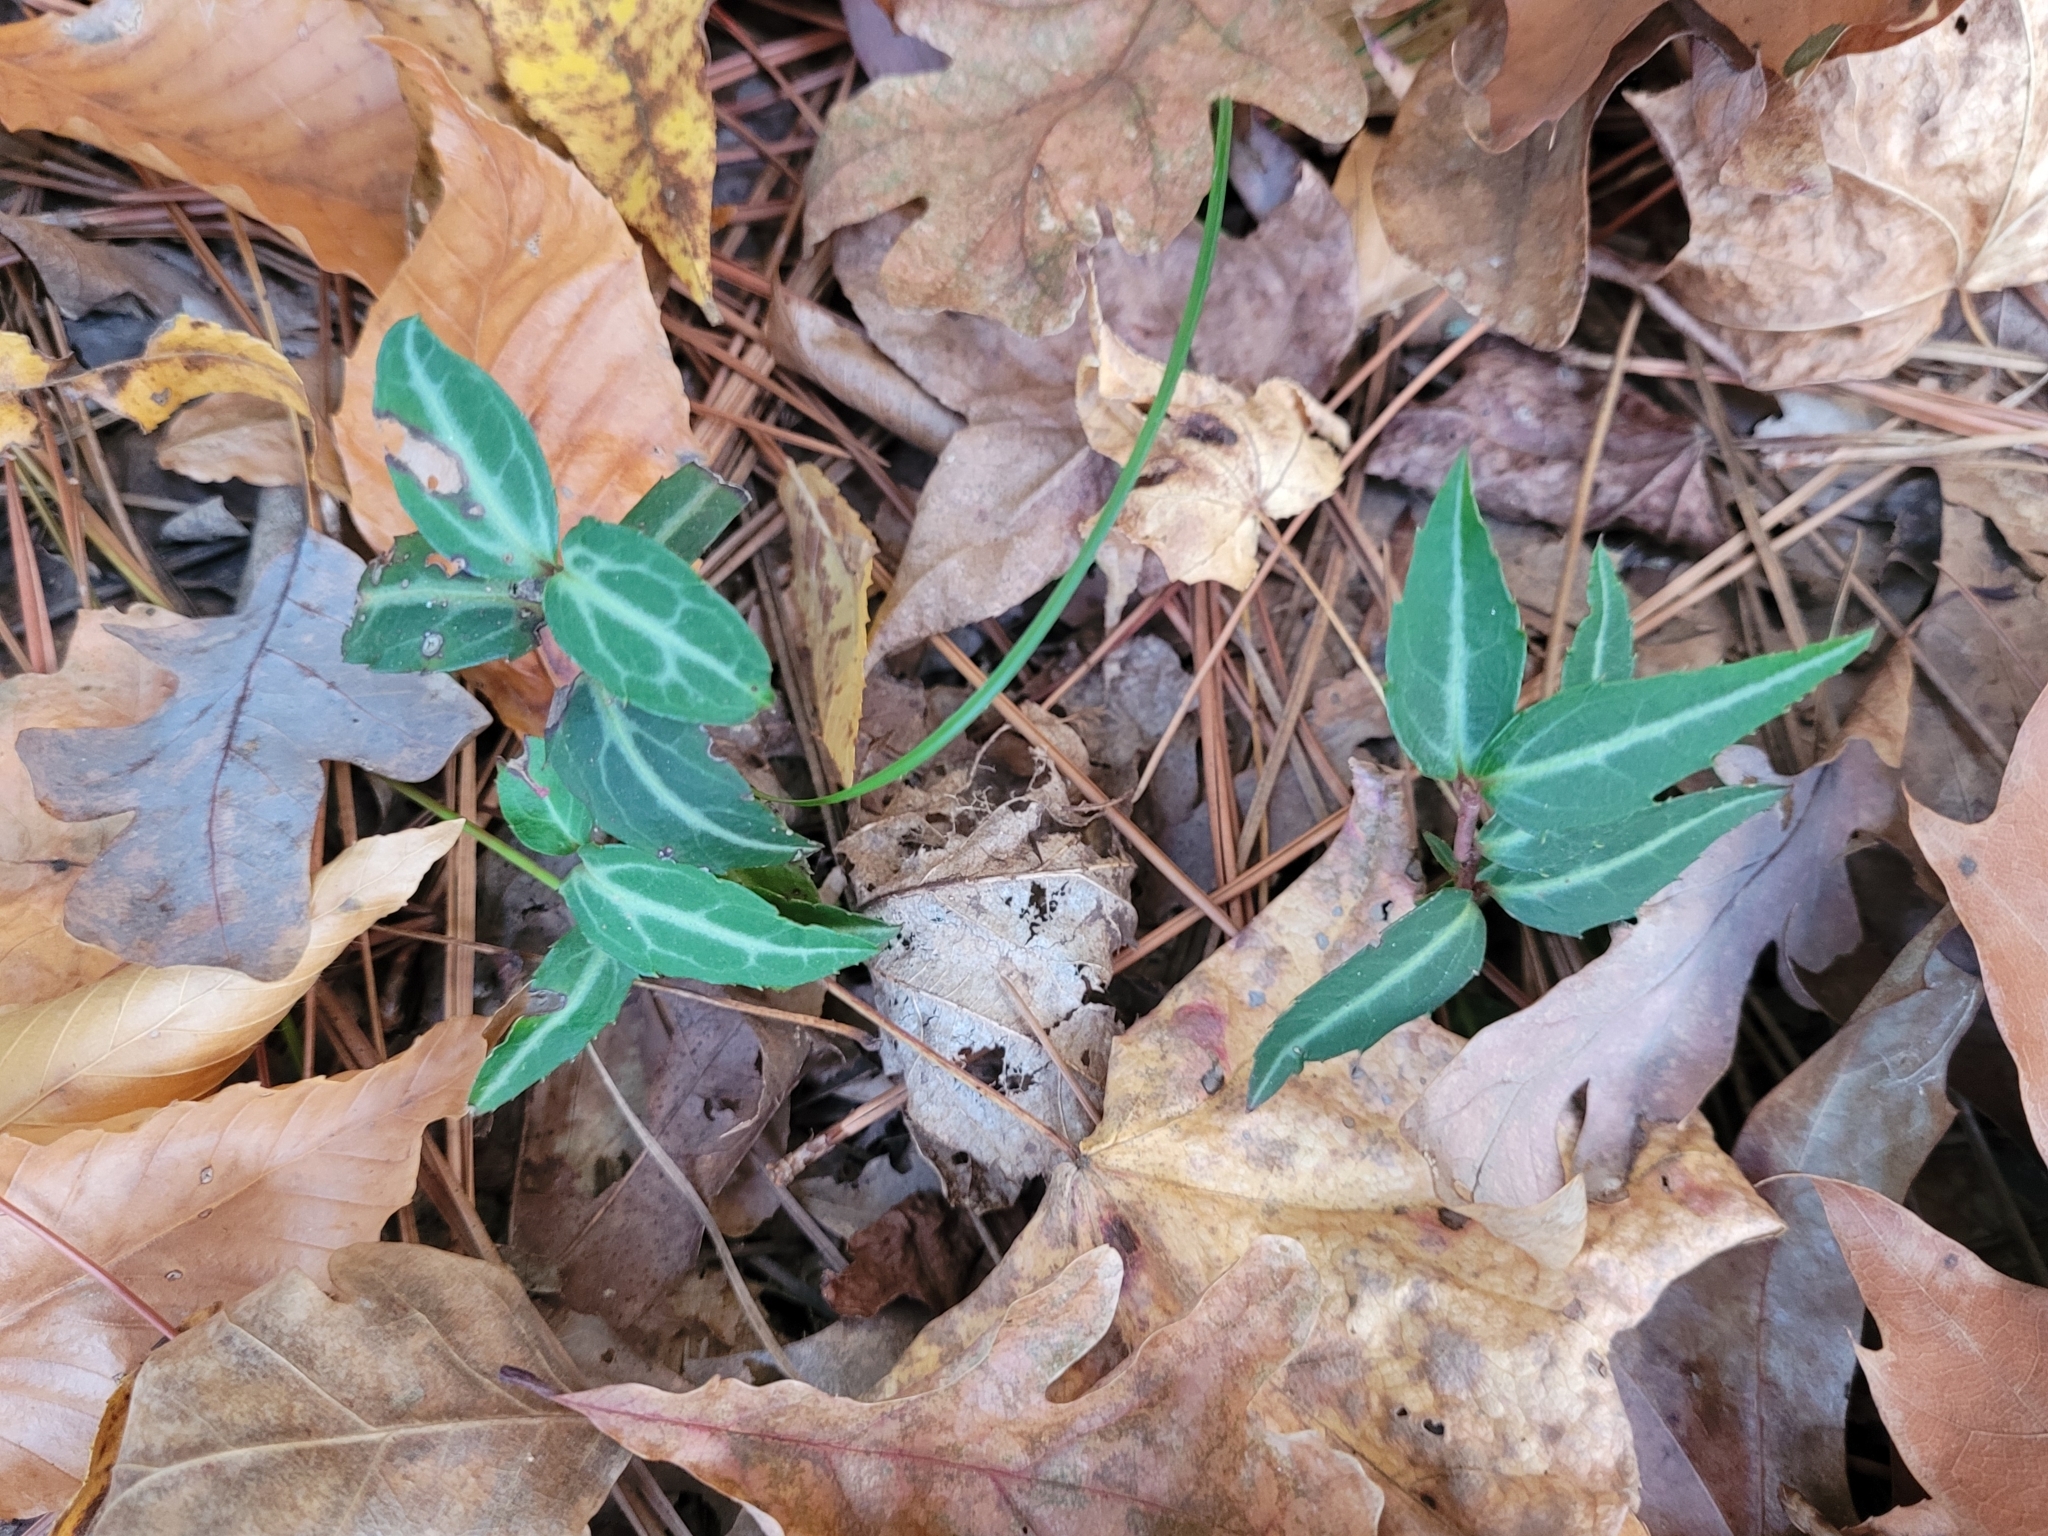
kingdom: Plantae
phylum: Tracheophyta
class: Magnoliopsida
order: Ericales
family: Ericaceae
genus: Chimaphila
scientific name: Chimaphila maculata
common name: Spotted pipsissewa
